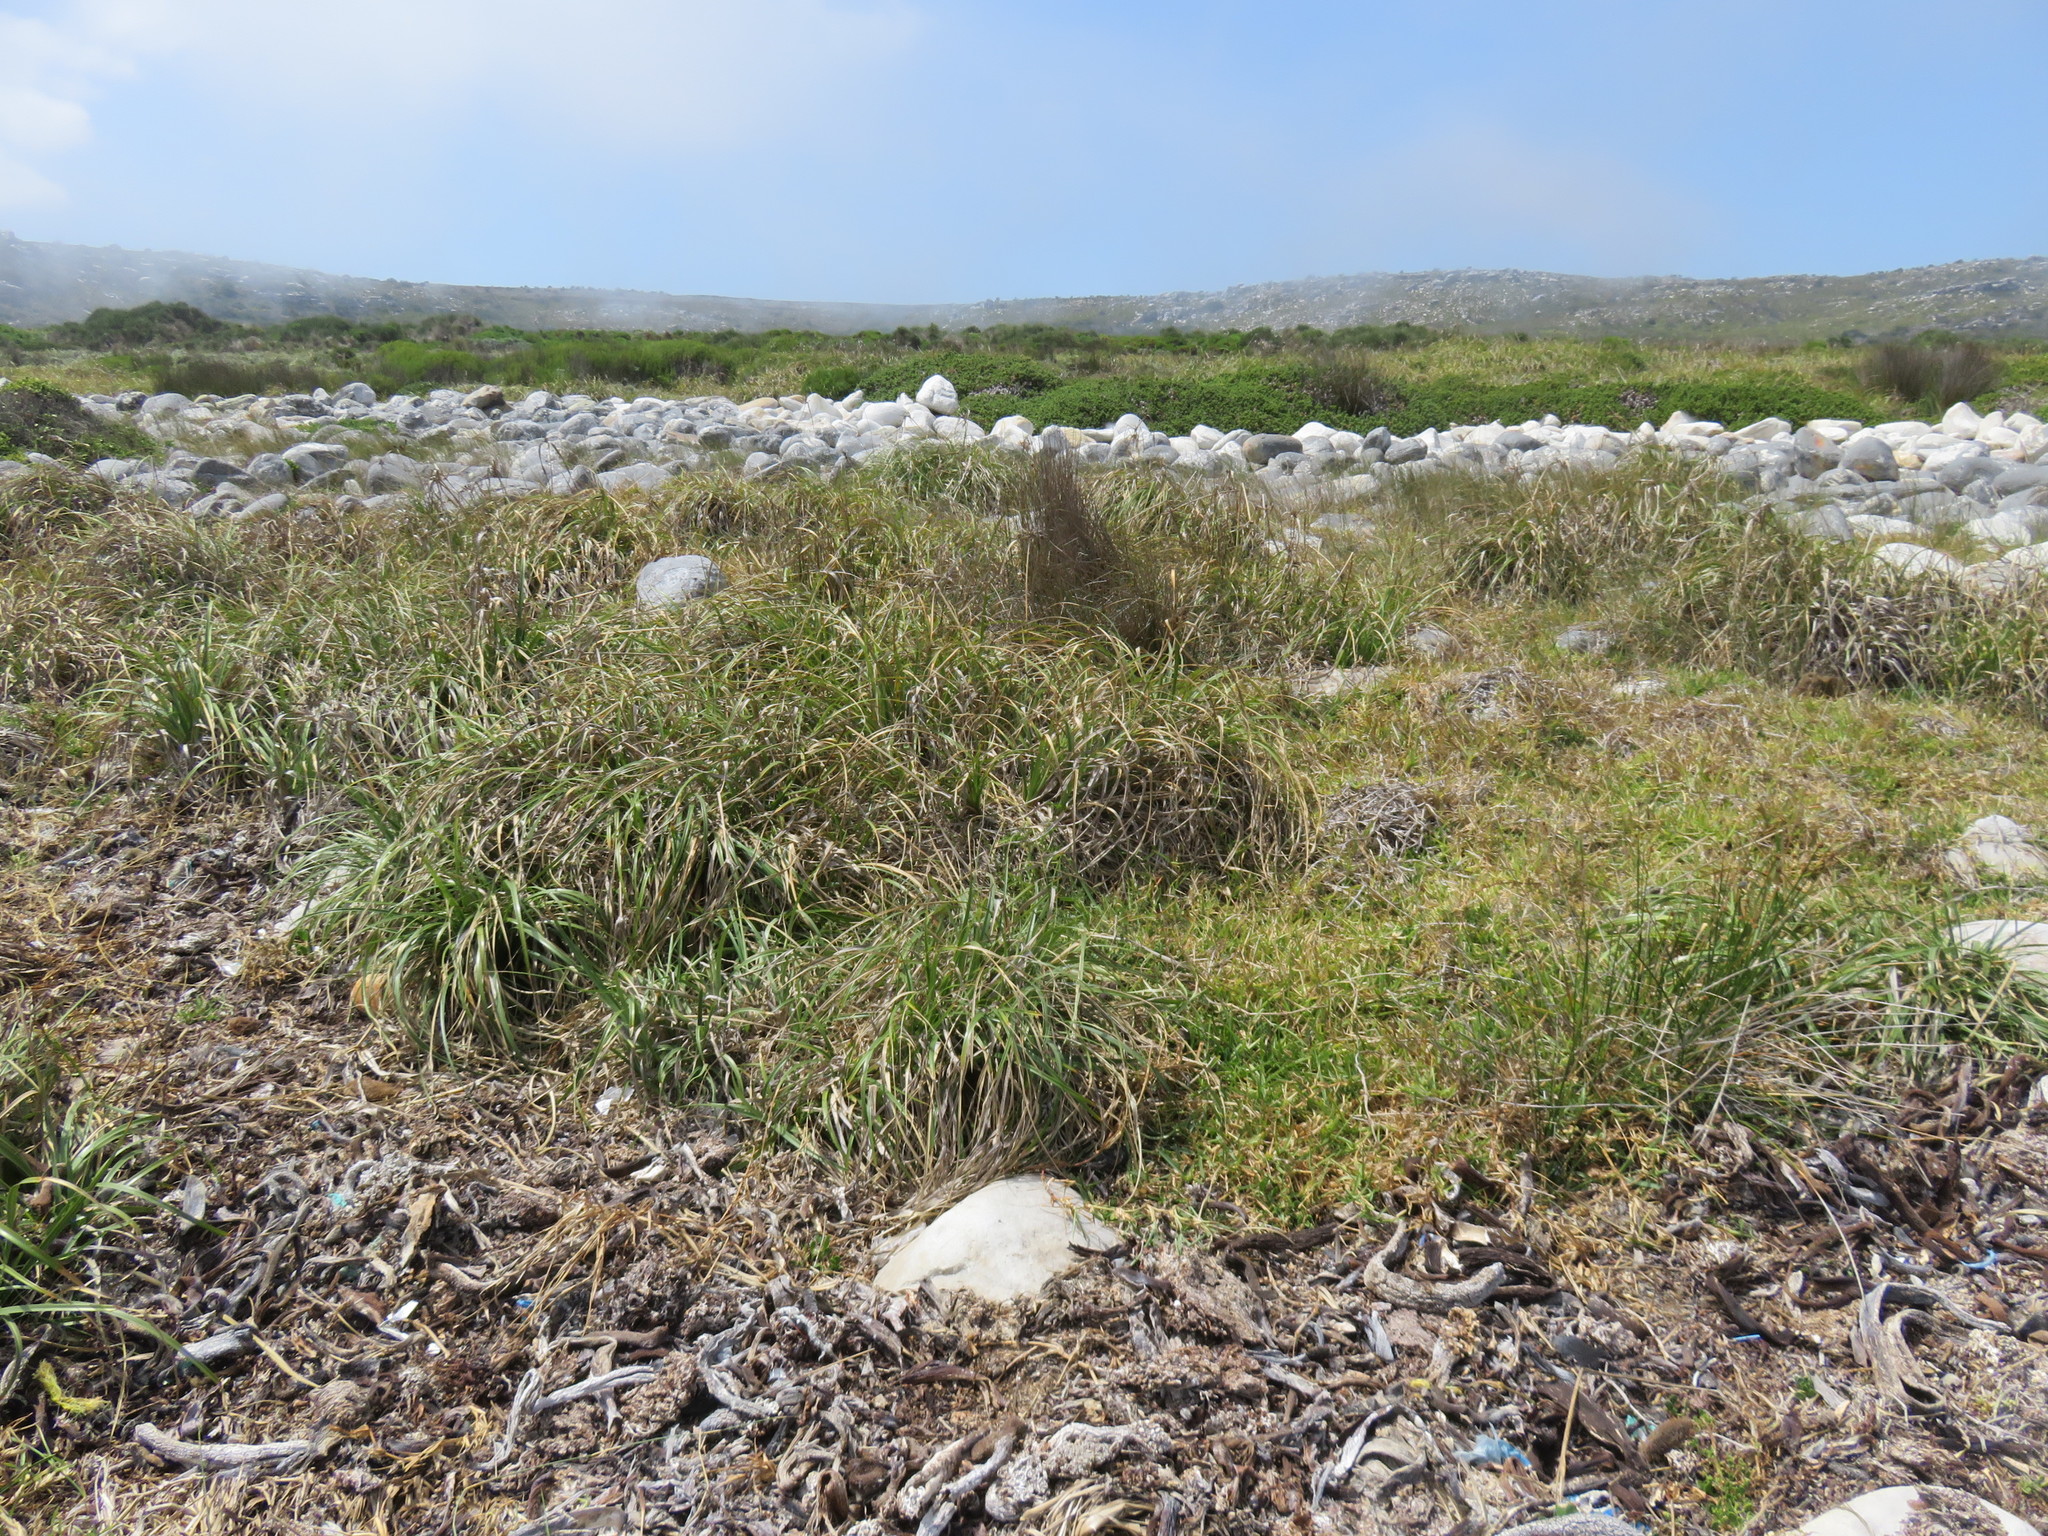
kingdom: Plantae
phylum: Tracheophyta
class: Liliopsida
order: Poales
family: Cyperaceae
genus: Cyperus
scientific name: Cyperus thunbergii
